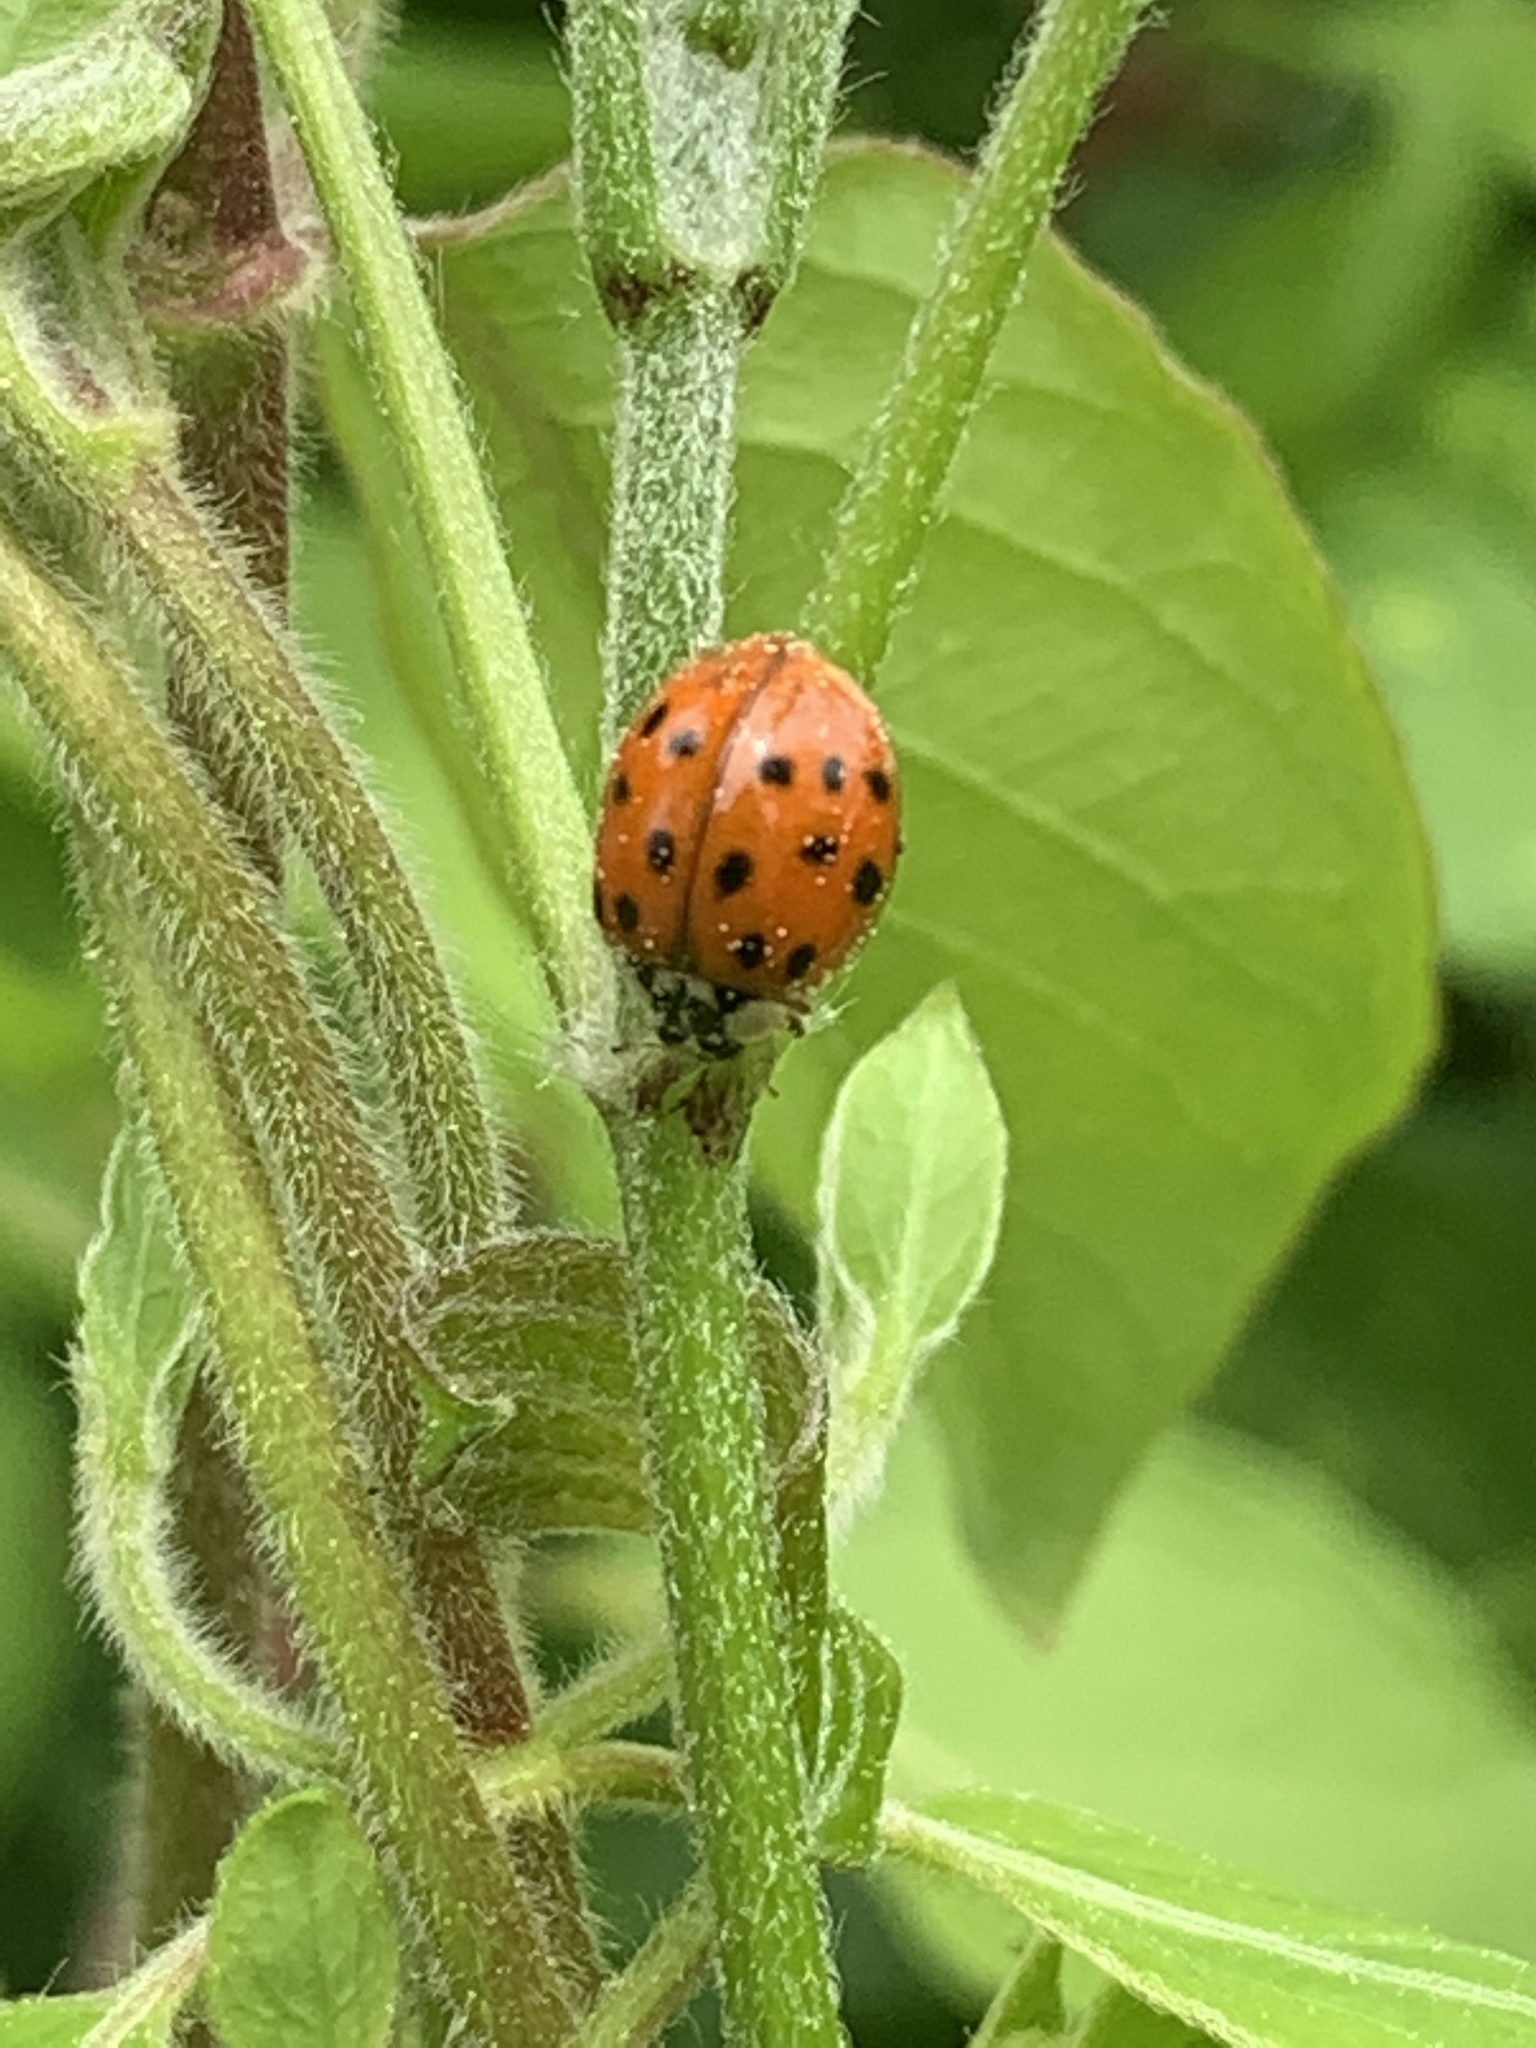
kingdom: Animalia
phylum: Arthropoda
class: Insecta
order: Coleoptera
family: Coccinellidae
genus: Harmonia
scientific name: Harmonia axyridis
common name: Harlequin ladybird
